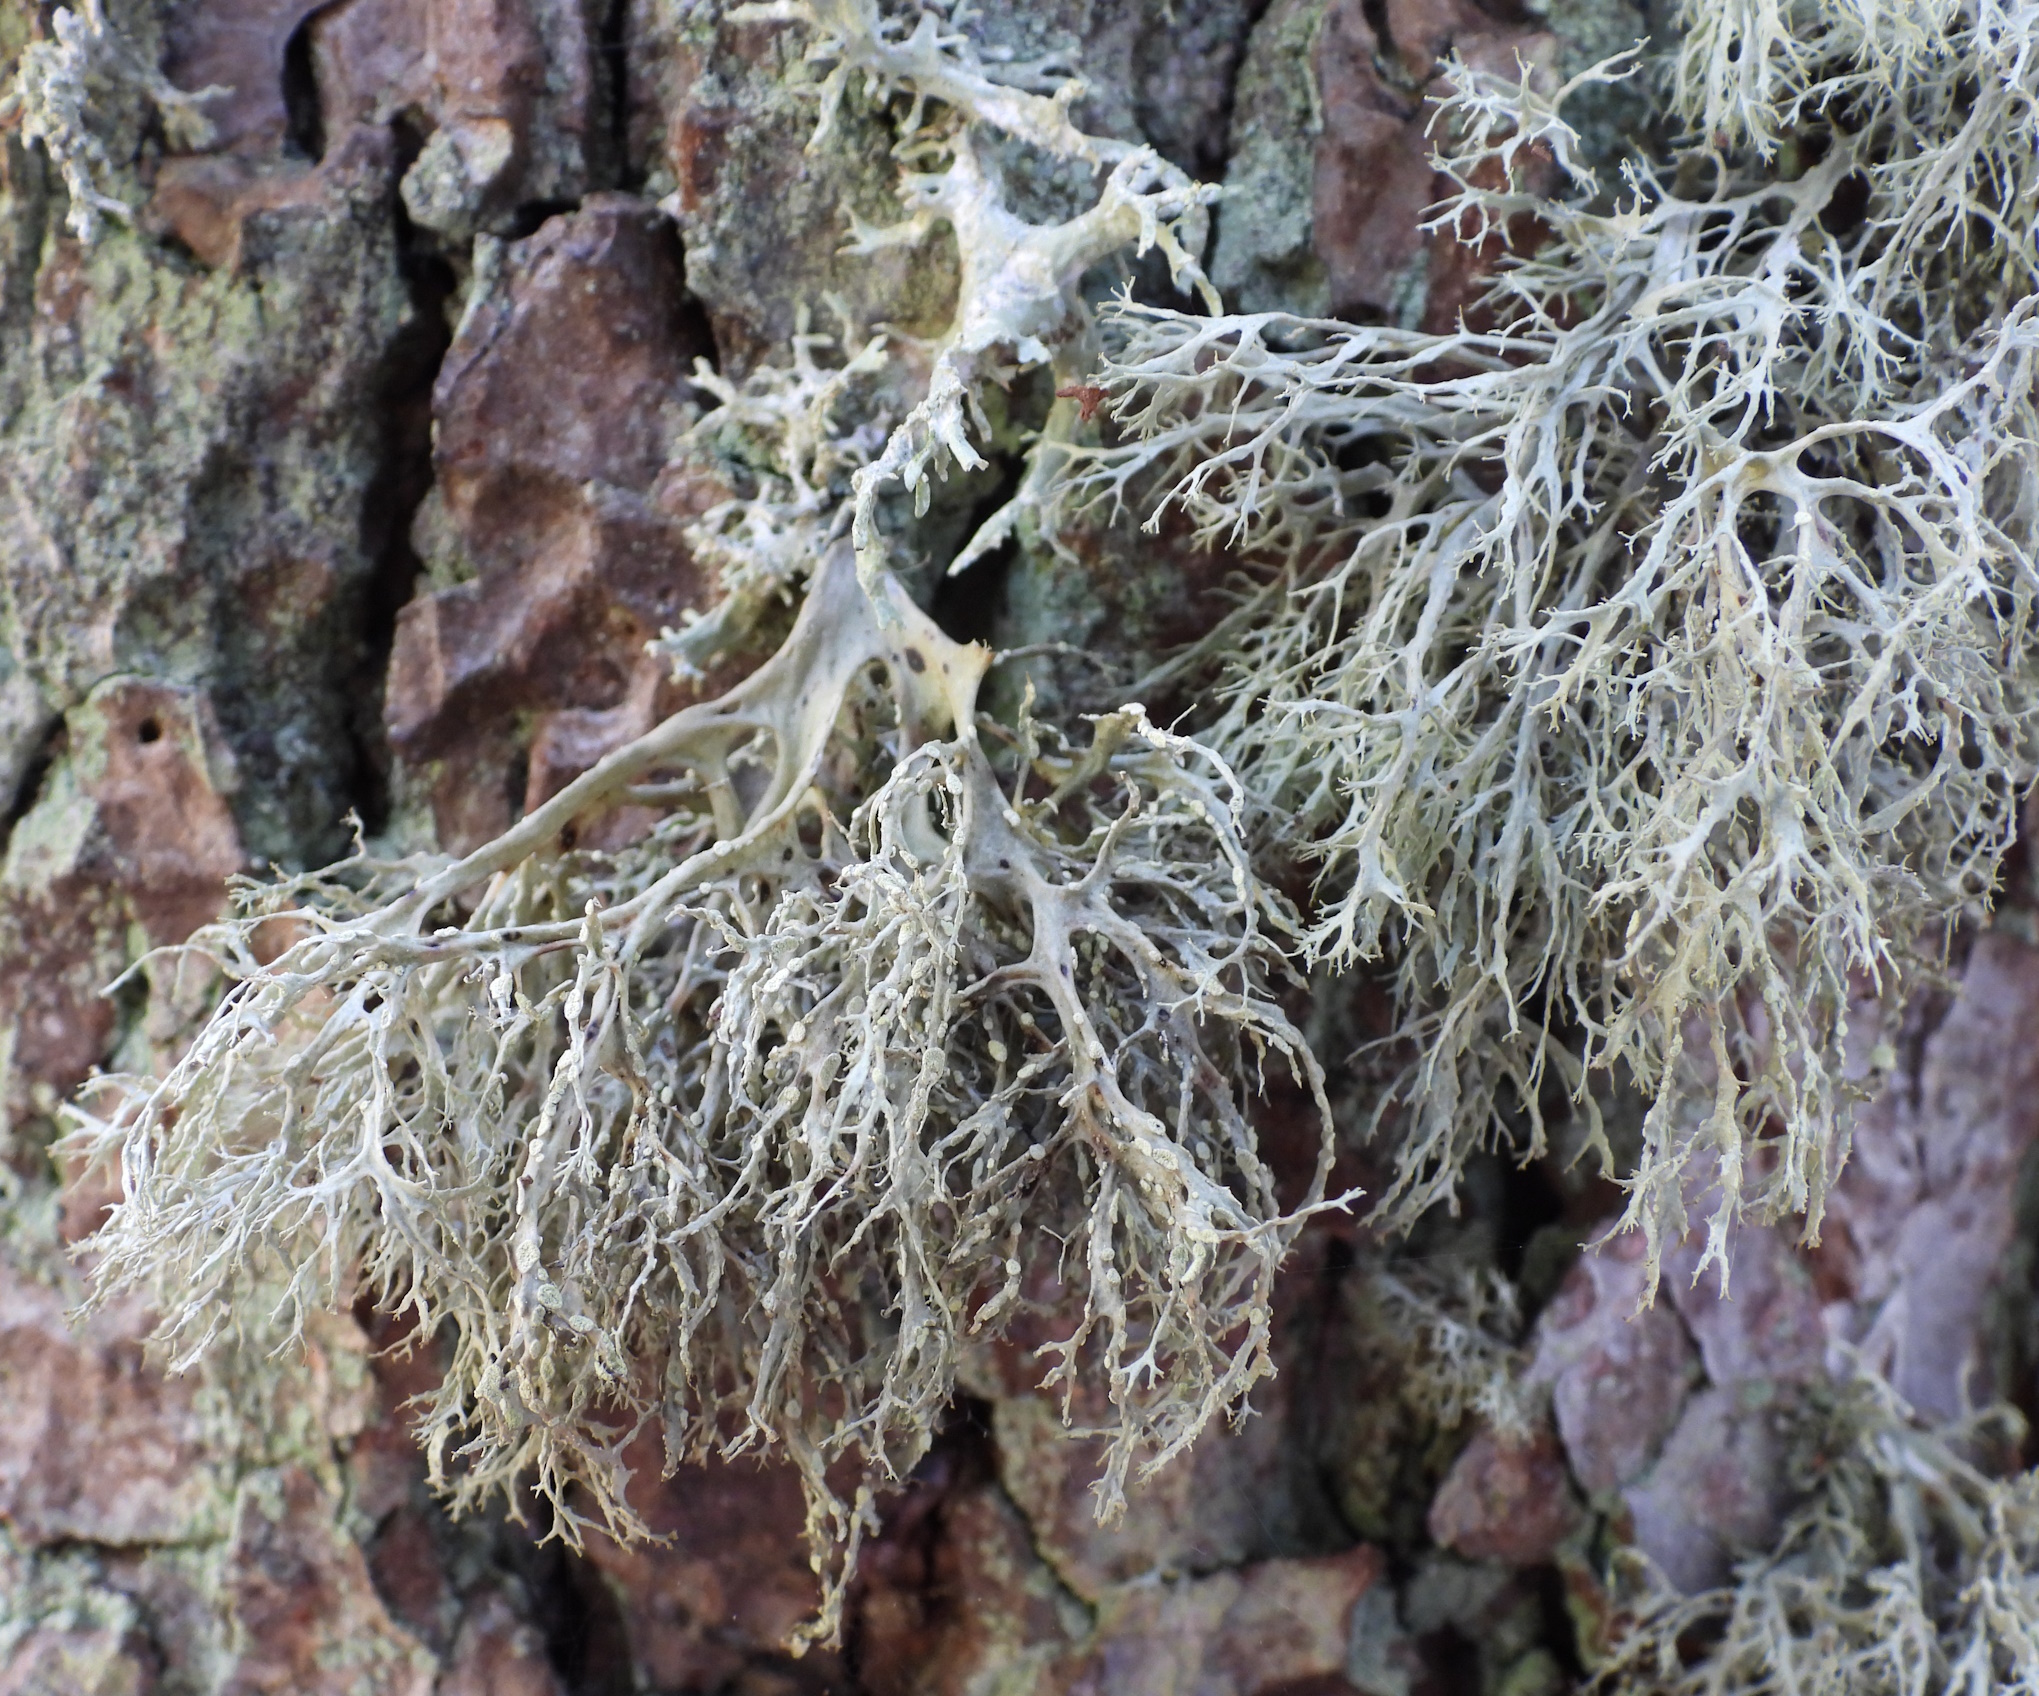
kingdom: Fungi
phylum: Ascomycota
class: Lecanoromycetes
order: Lecanorales
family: Ramalinaceae
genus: Ramalina
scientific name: Ramalina farinacea
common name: Farinose cartilage lichen
